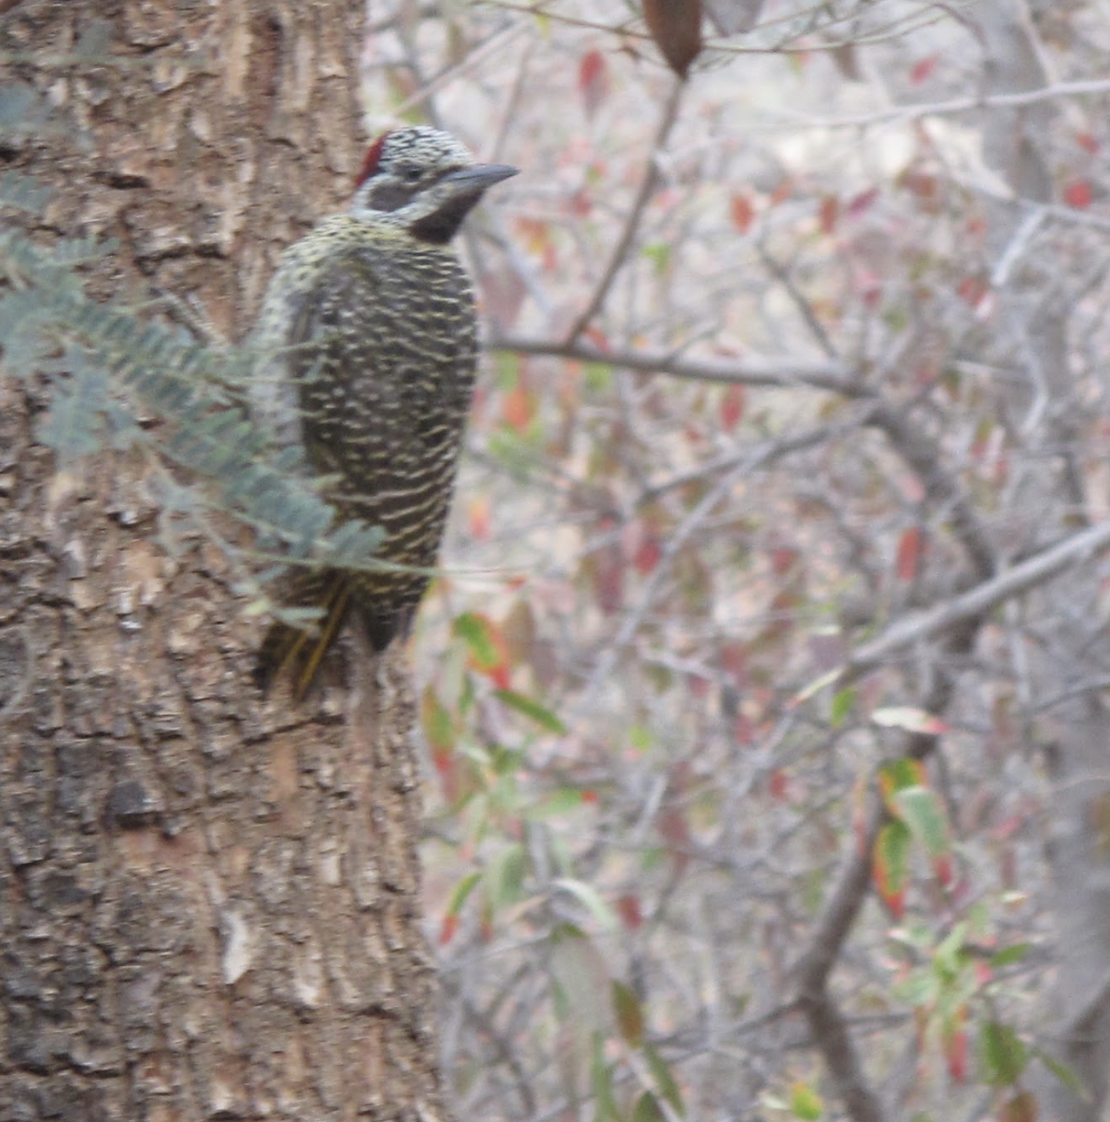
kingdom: Animalia
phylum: Chordata
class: Aves
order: Piciformes
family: Picidae
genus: Campethera
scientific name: Campethera bennettii
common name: Bennett's woodpecker
